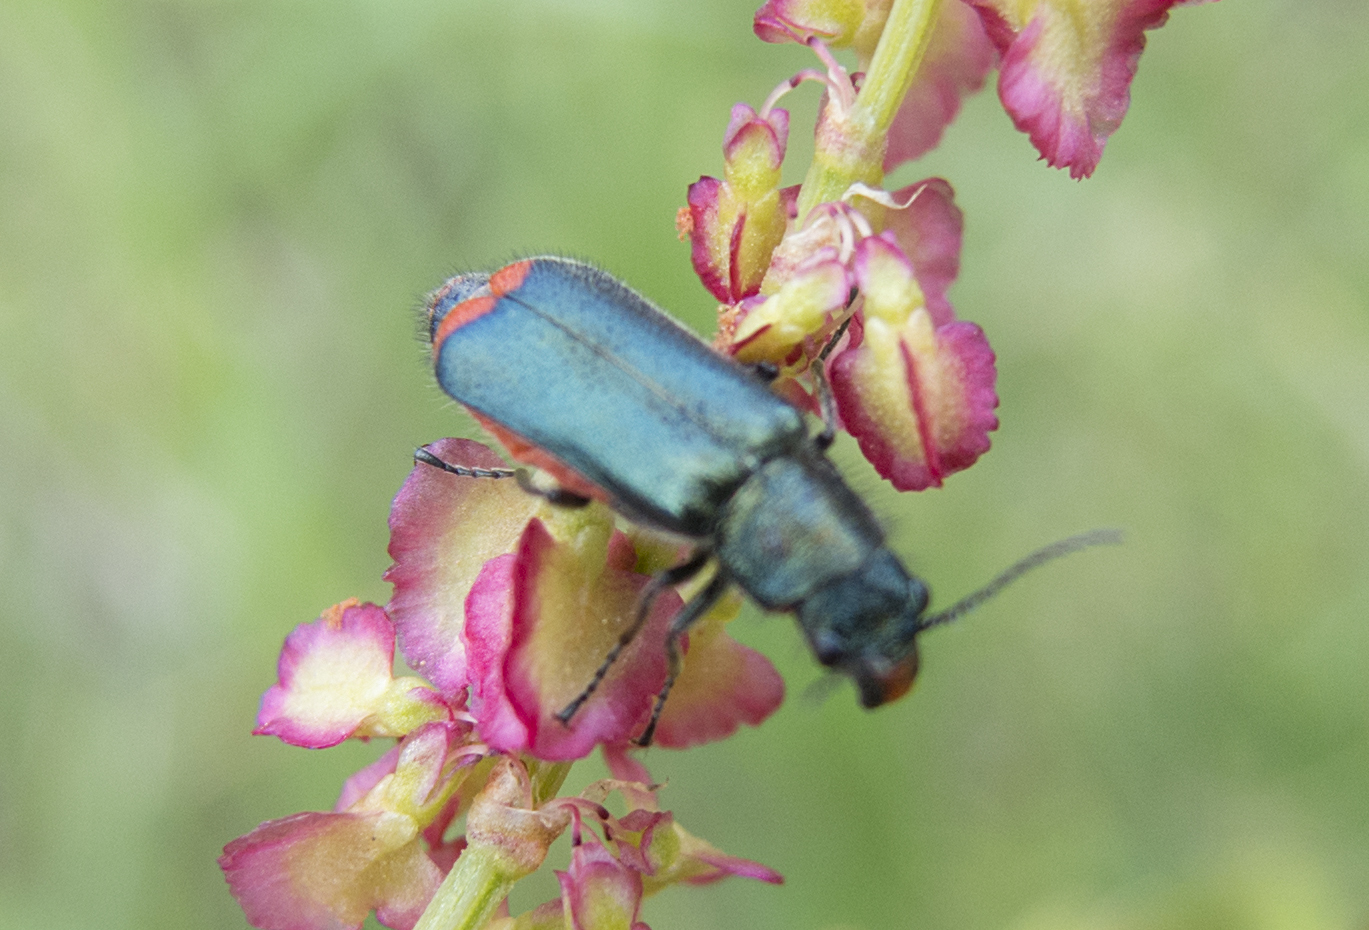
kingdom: Animalia
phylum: Arthropoda
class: Insecta
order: Coleoptera
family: Malachiidae
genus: Haplomalachius
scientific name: Haplomalachius flabellatus
